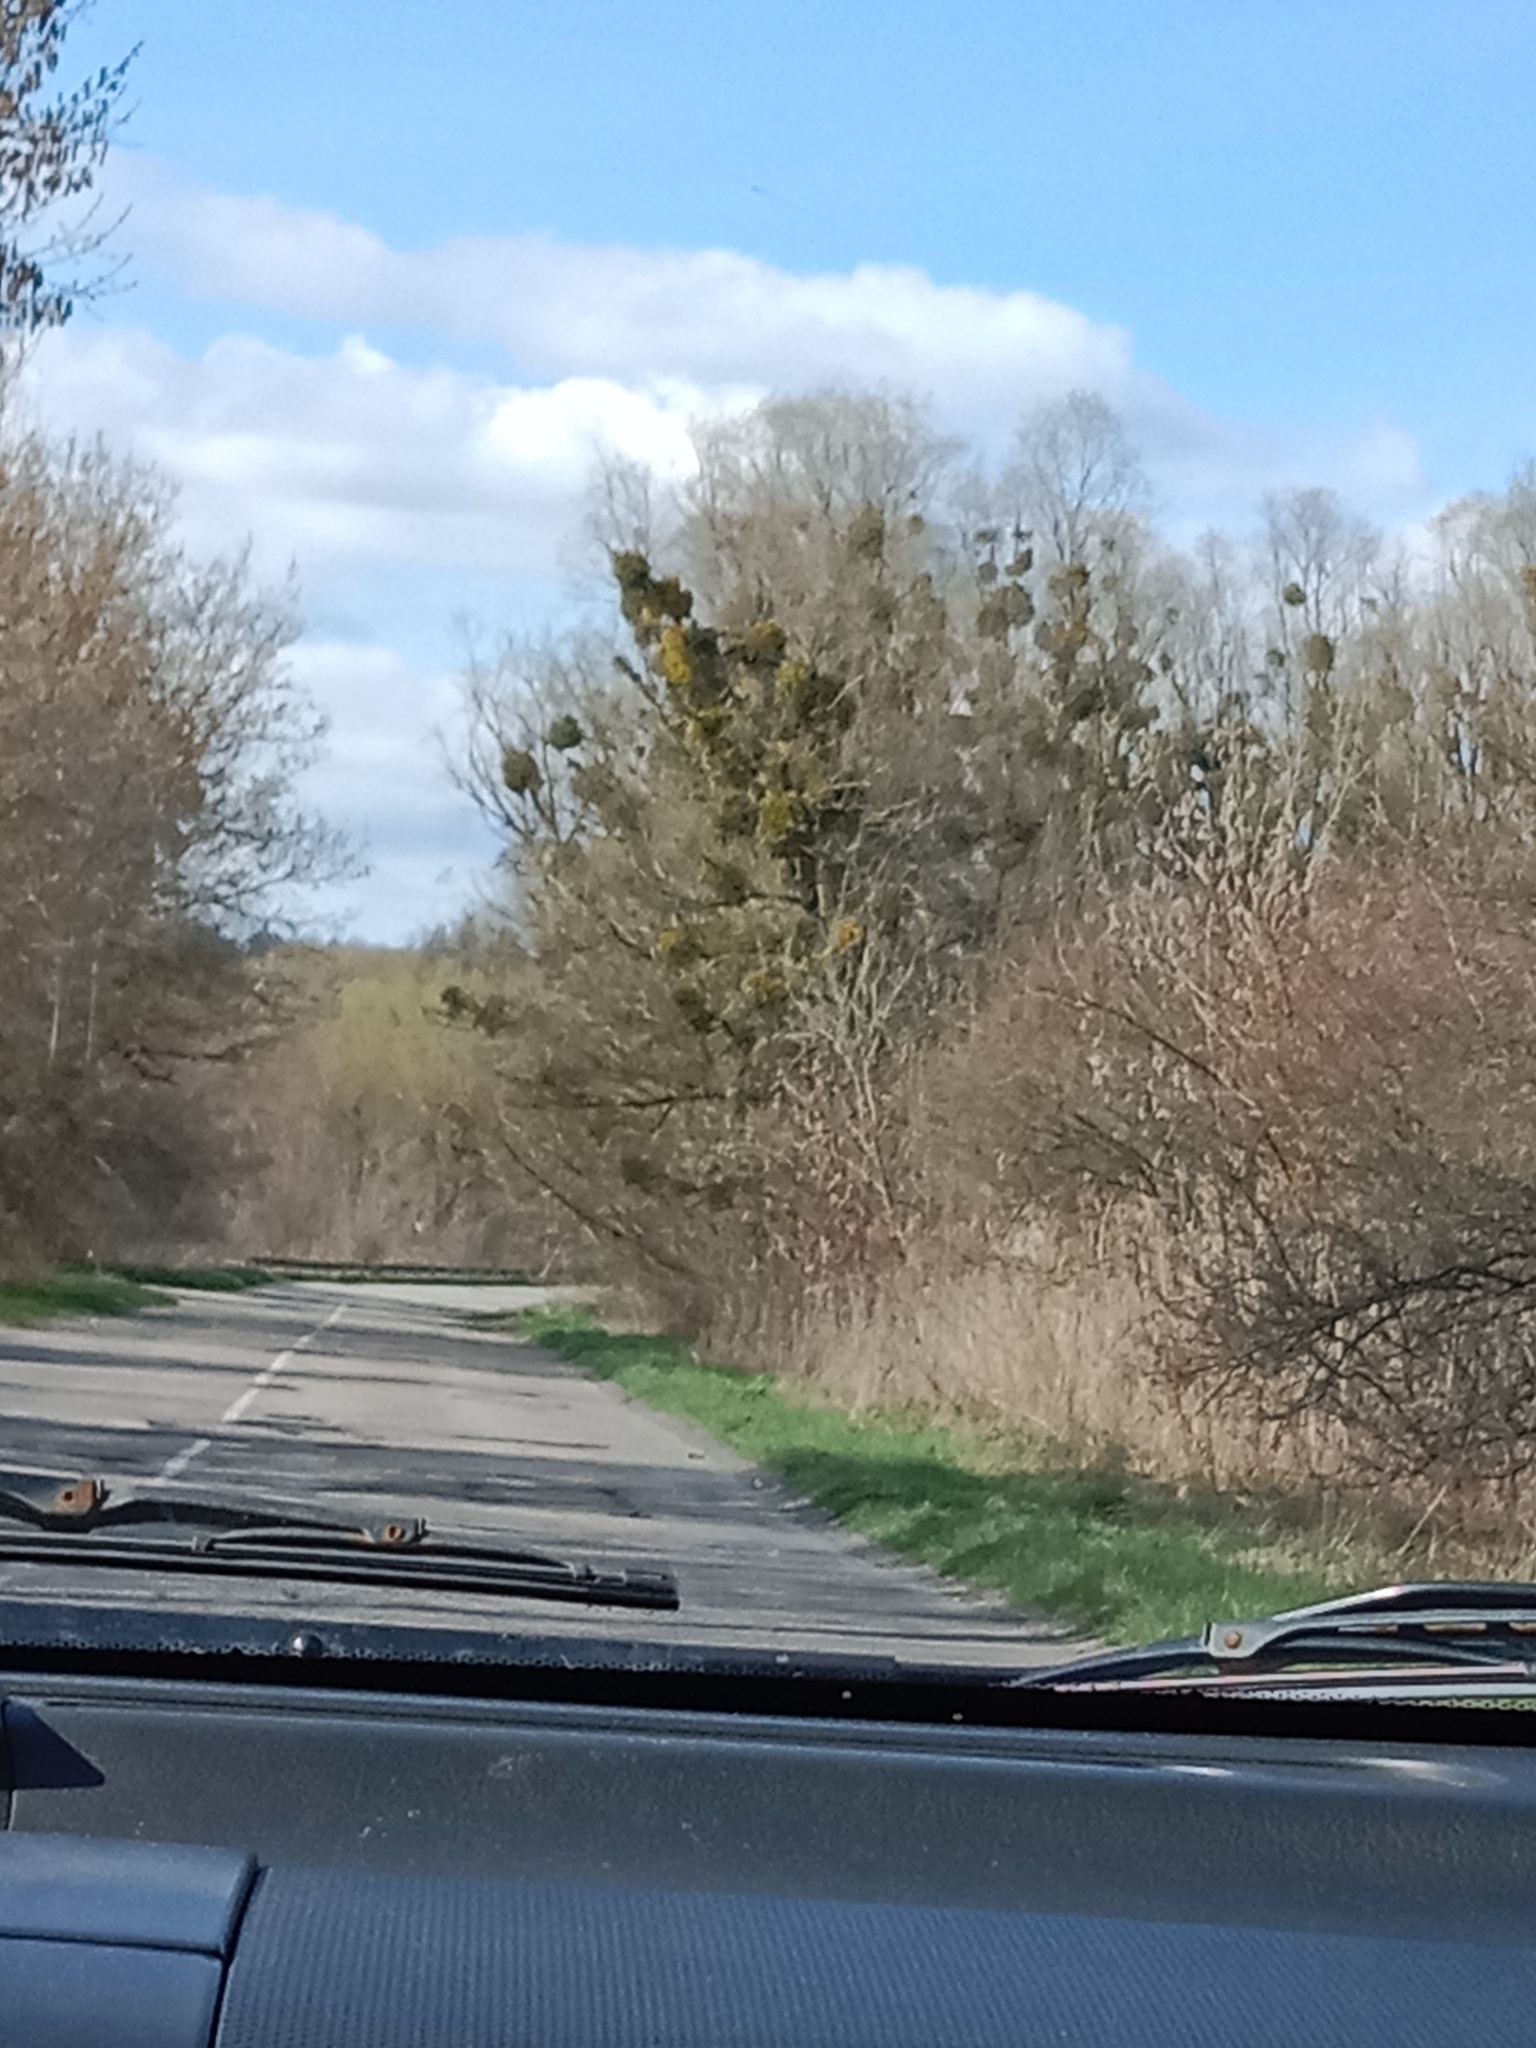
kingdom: Plantae
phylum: Tracheophyta
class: Magnoliopsida
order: Santalales
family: Viscaceae
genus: Viscum
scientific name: Viscum album
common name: Mistletoe
